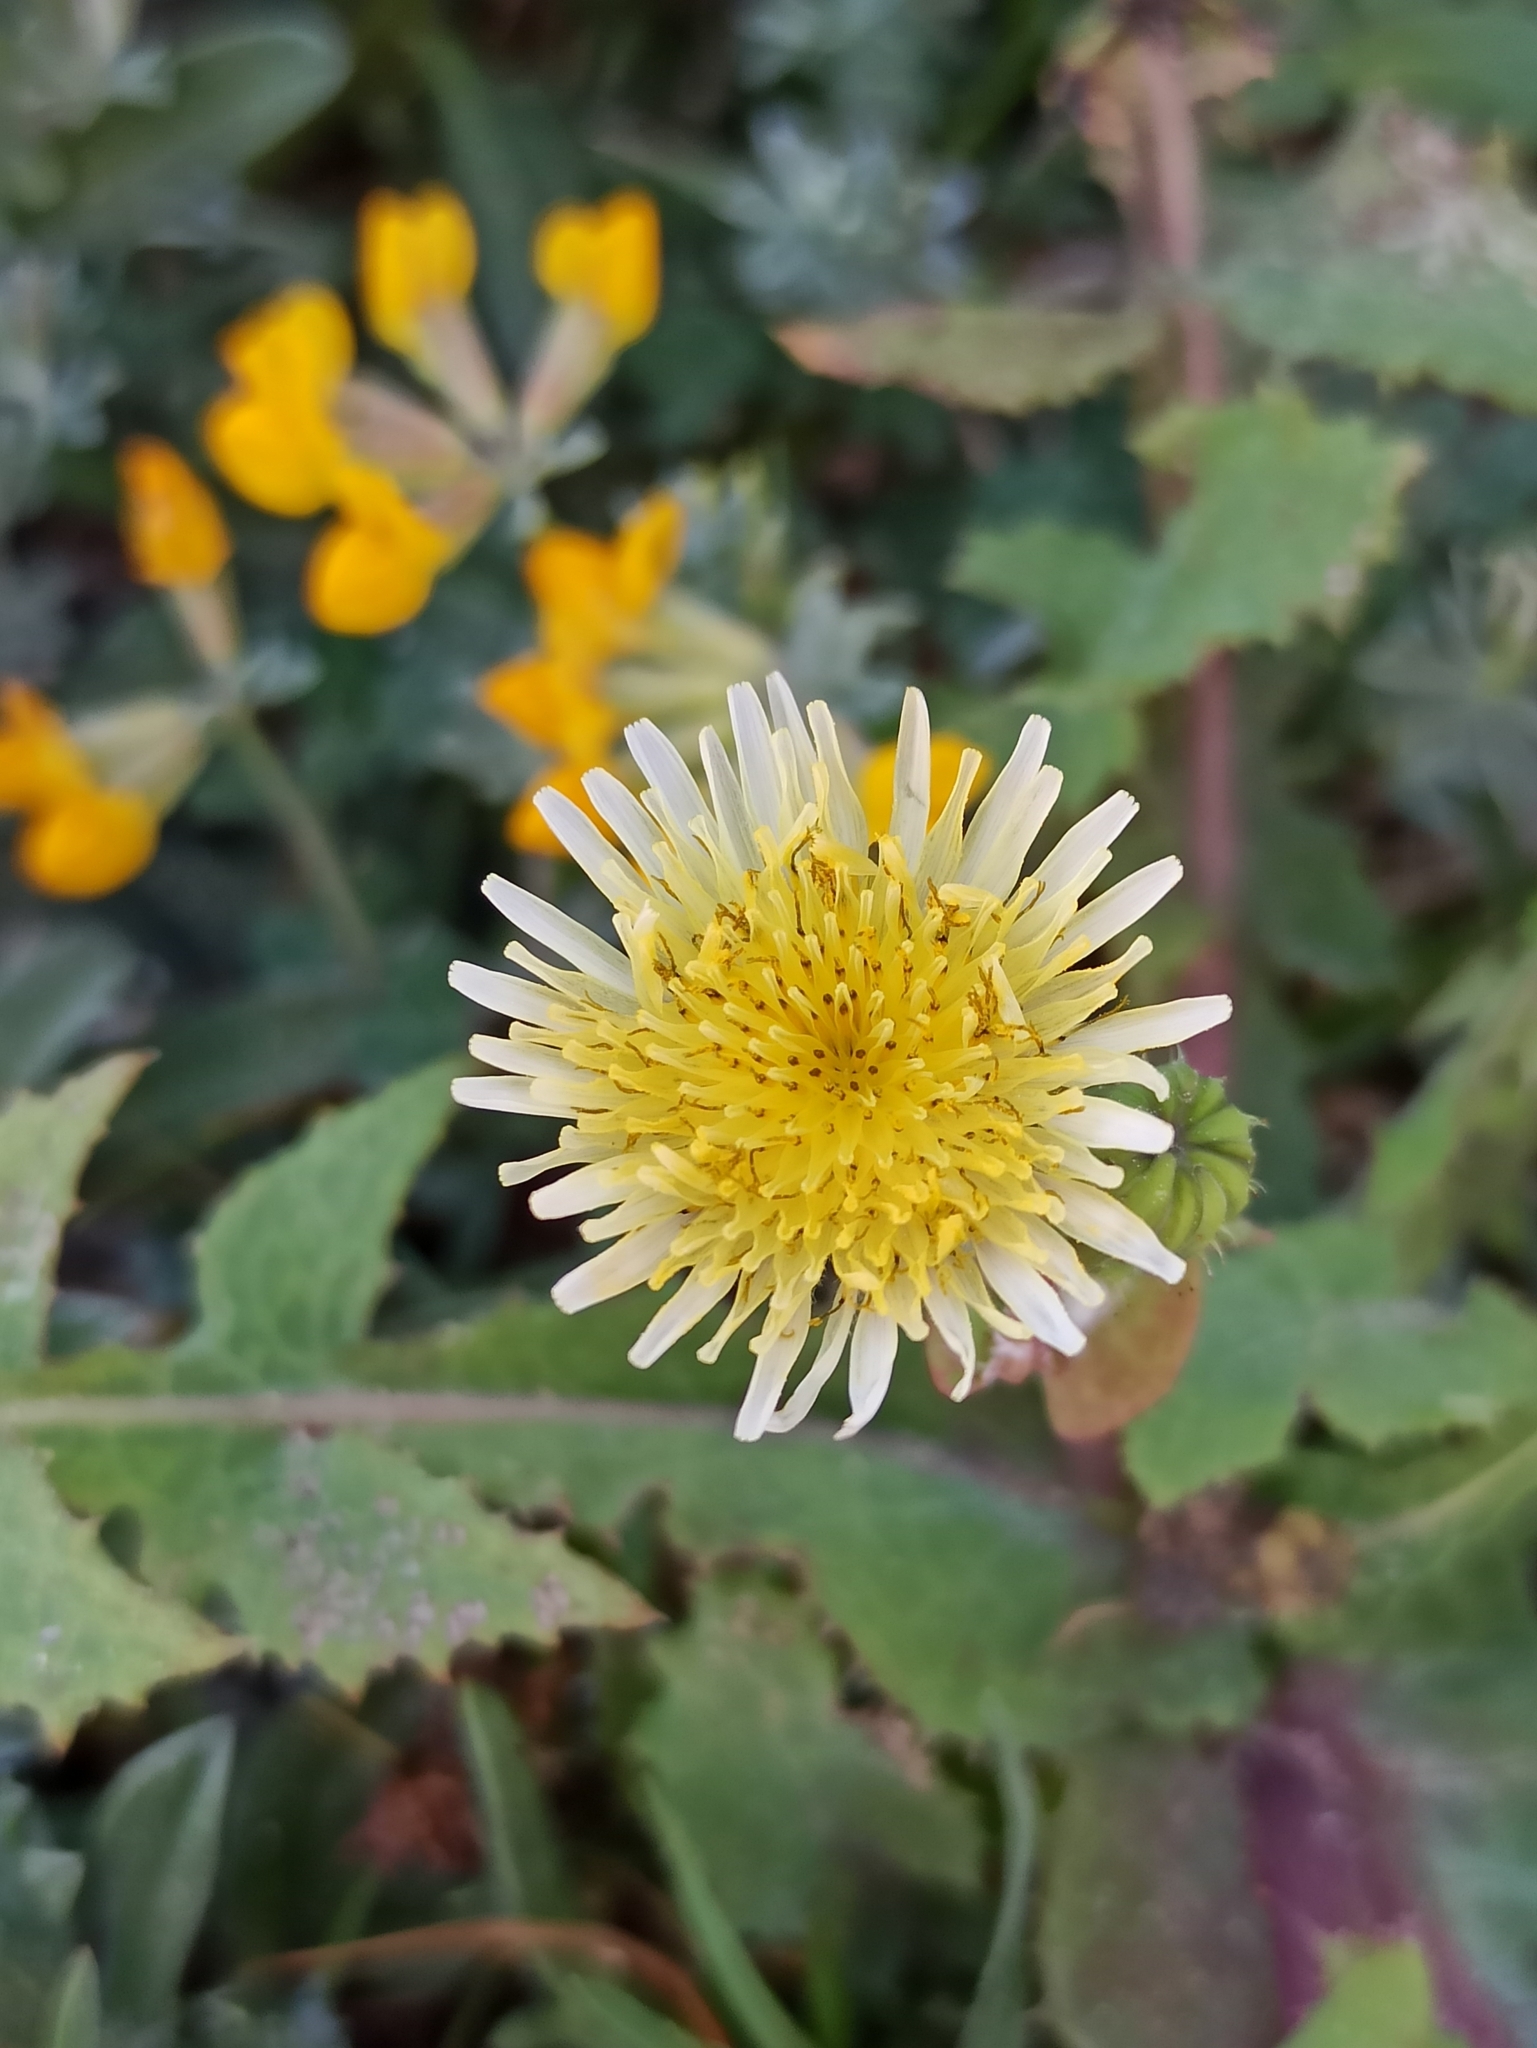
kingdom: Plantae
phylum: Tracheophyta
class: Magnoliopsida
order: Asterales
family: Asteraceae
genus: Sonchus
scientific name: Sonchus oleraceus
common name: Common sowthistle
